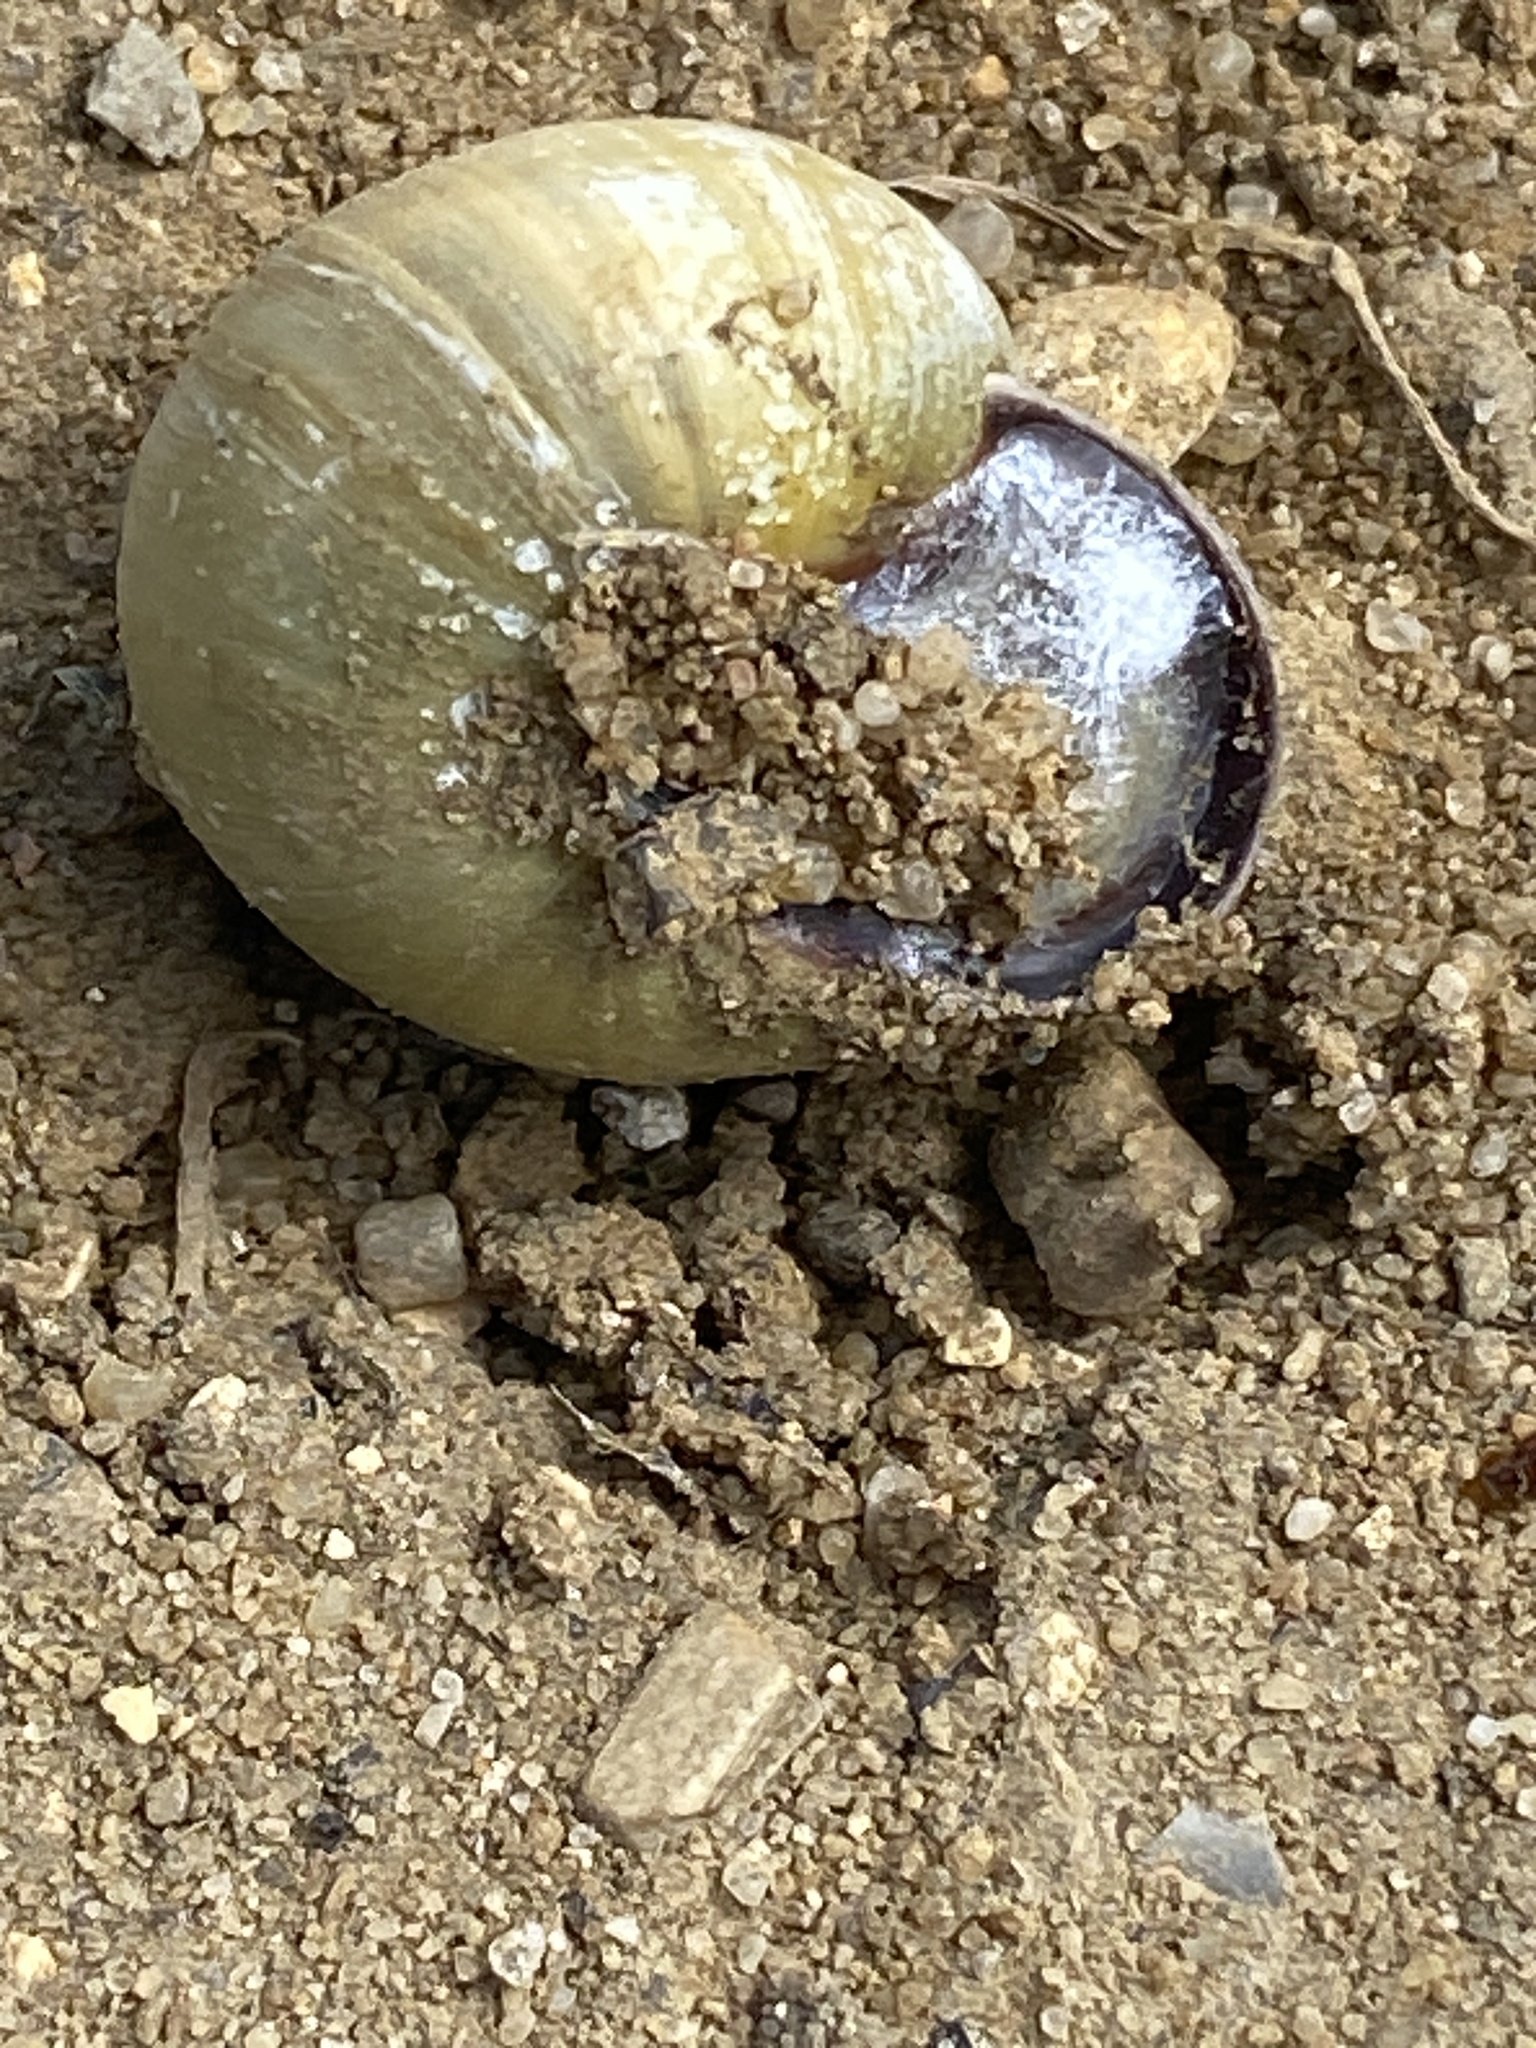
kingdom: Animalia
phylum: Mollusca
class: Gastropoda
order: Stylommatophora
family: Helicidae
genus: Cepaea
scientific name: Cepaea nemoralis
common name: Grovesnail
